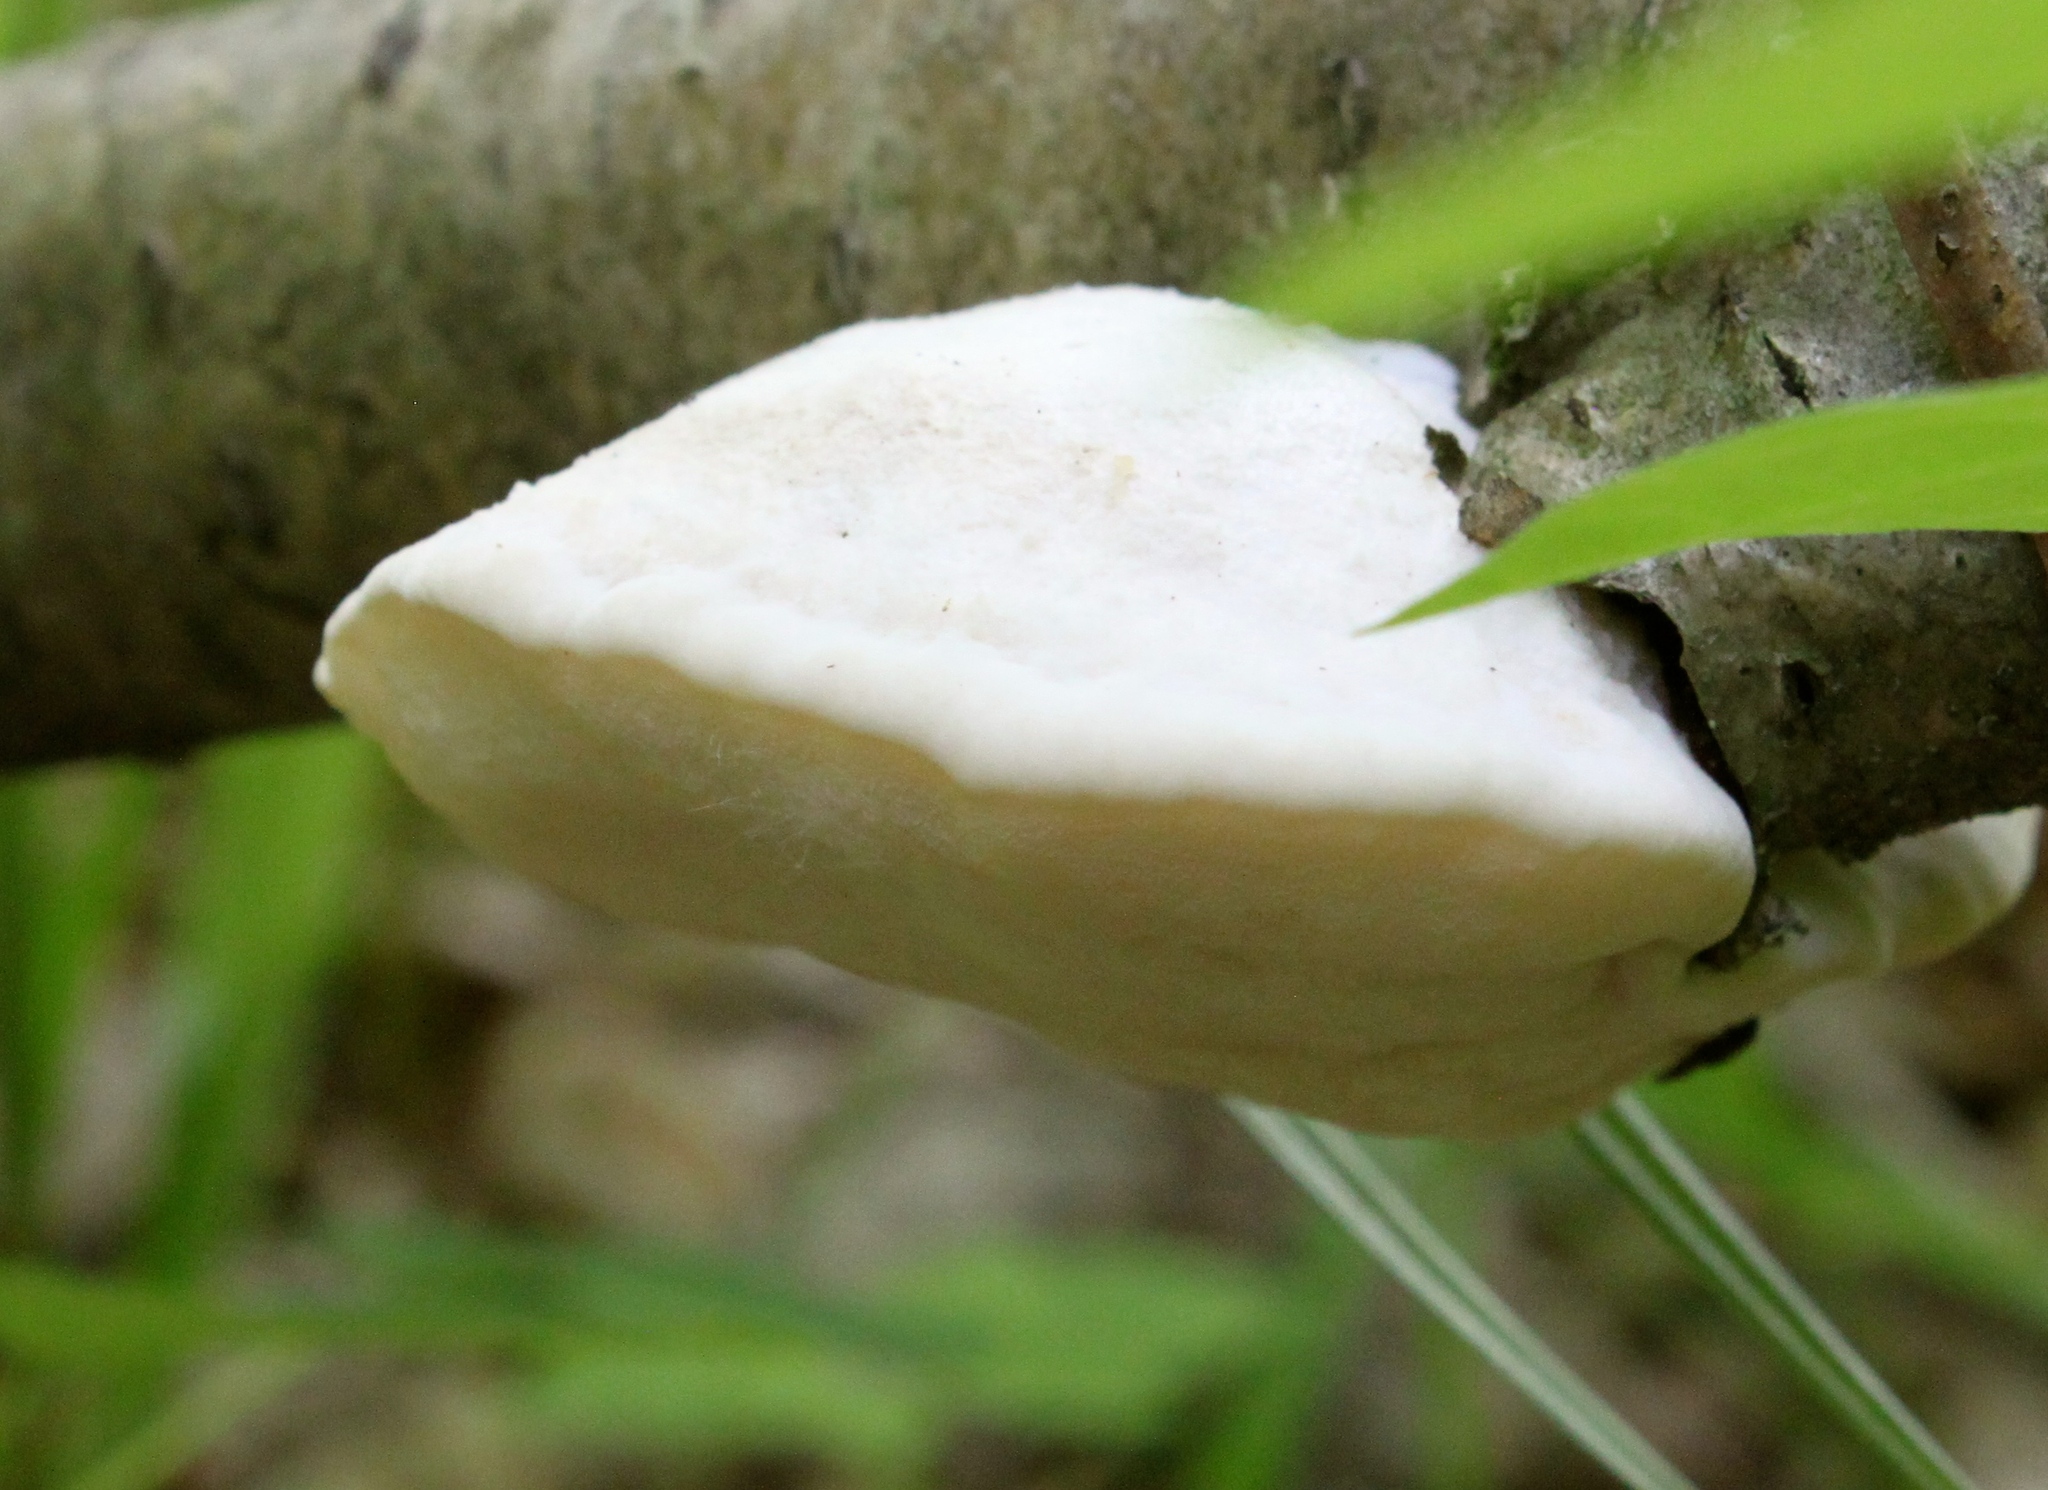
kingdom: Fungi
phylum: Basidiomycota
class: Agaricomycetes
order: Polyporales
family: Incrustoporiaceae
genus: Tyromyces
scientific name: Tyromyces chioneus
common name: White cheese polypore
